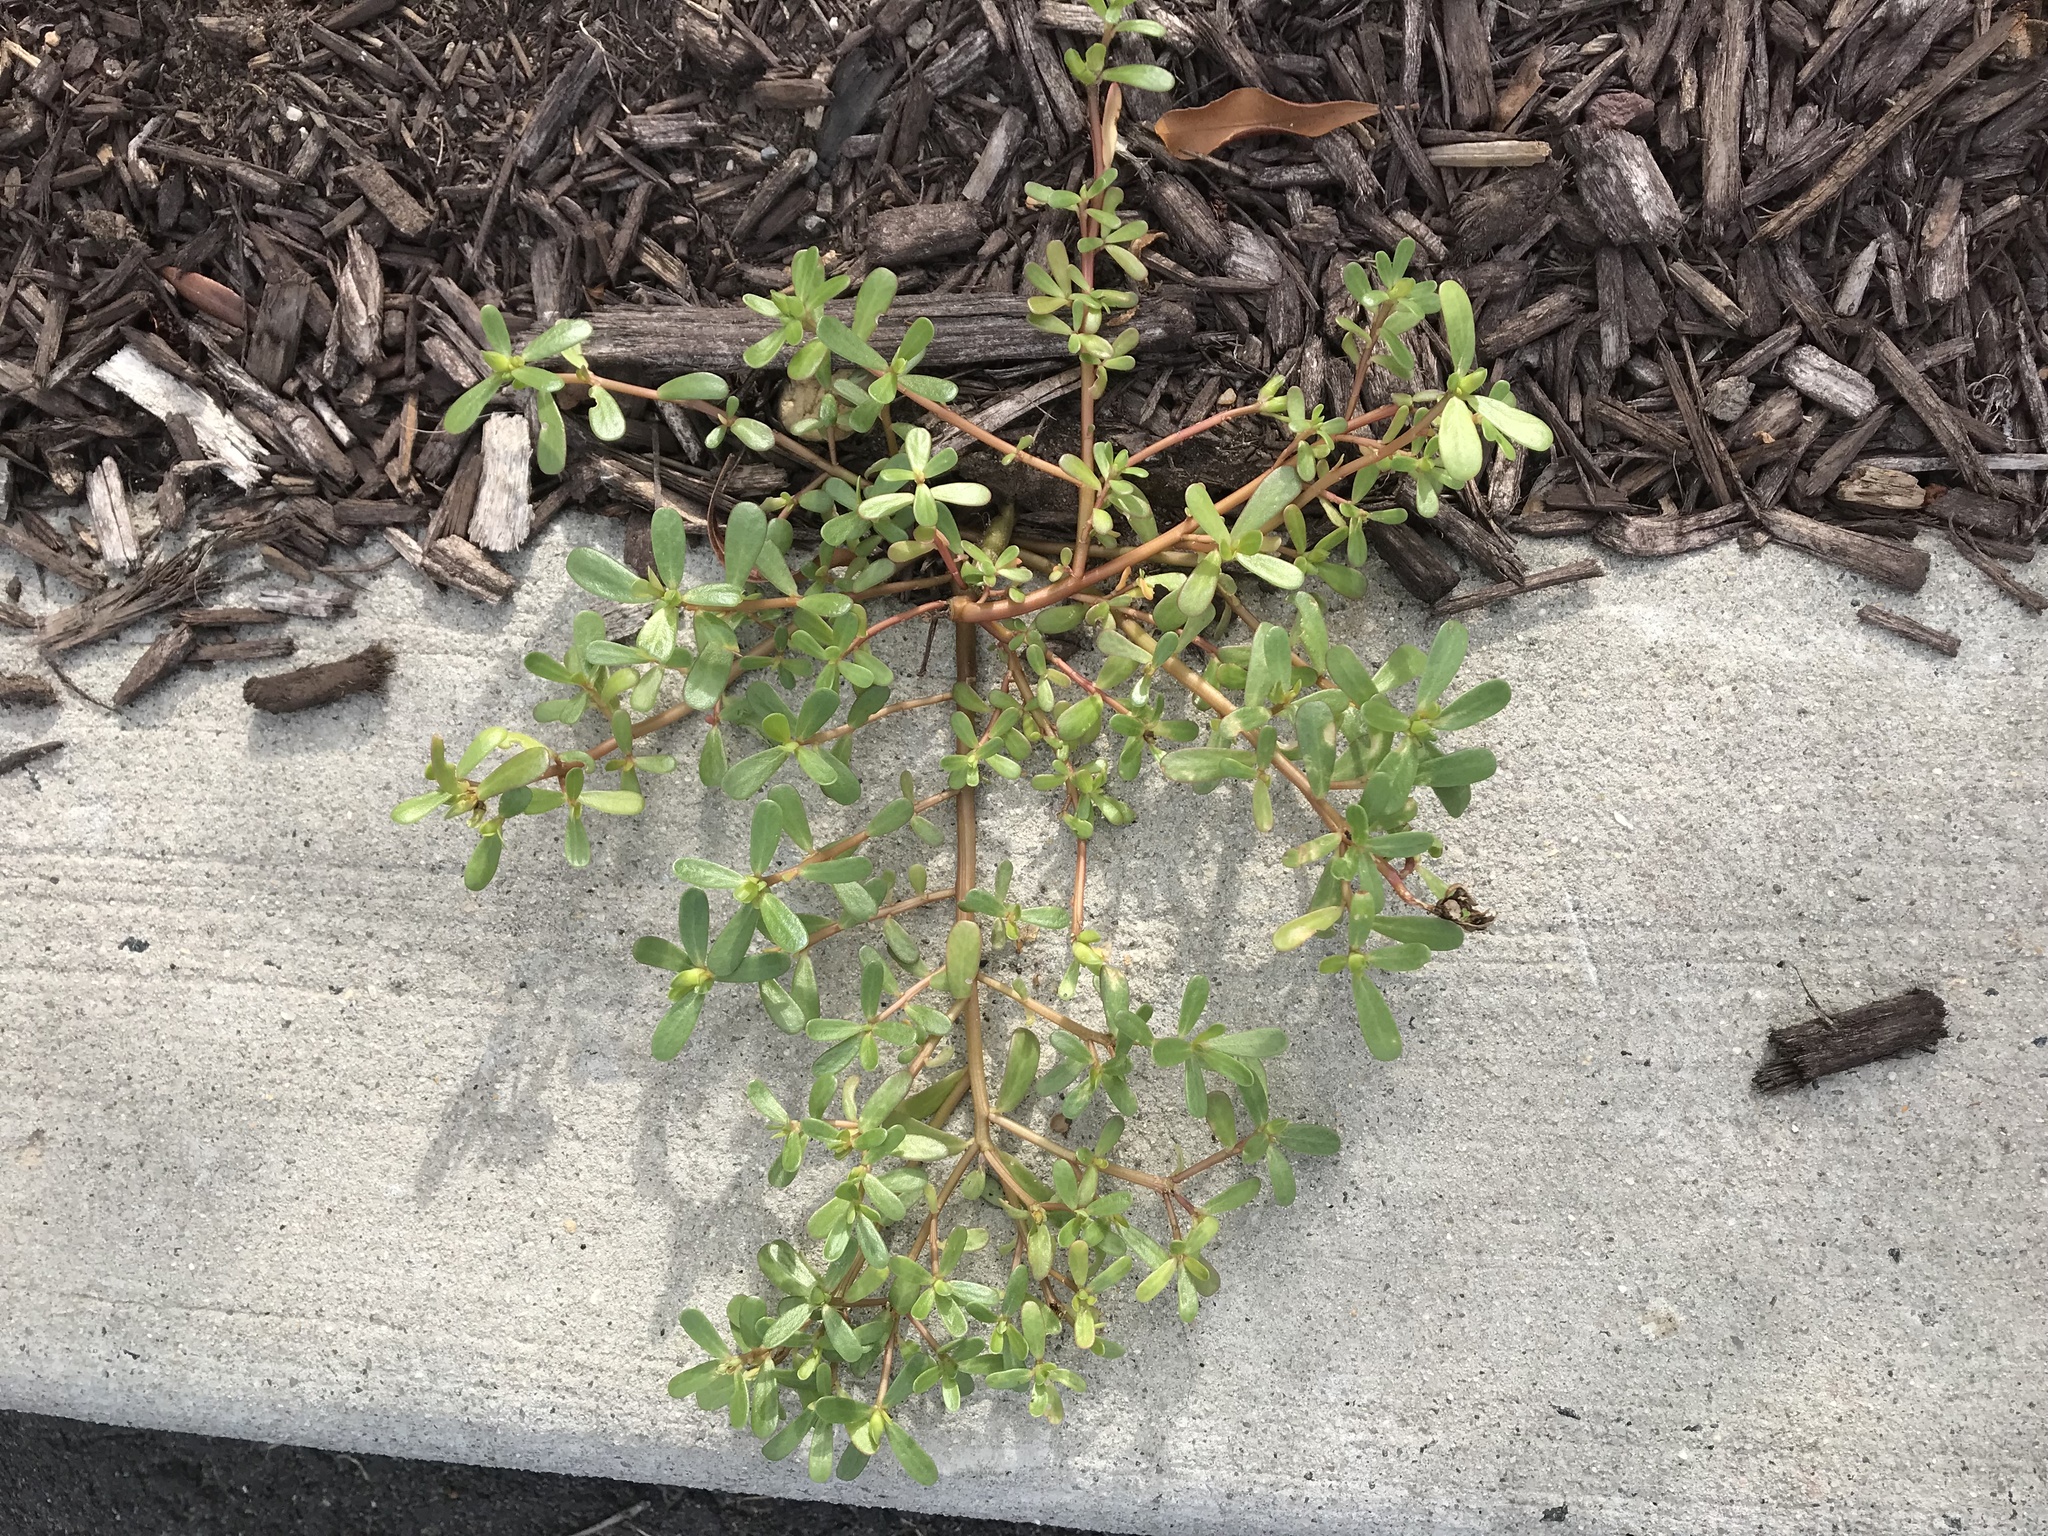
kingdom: Plantae
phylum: Tracheophyta
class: Magnoliopsida
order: Caryophyllales
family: Portulacaceae
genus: Portulaca
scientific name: Portulaca oleracea
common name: Common purslane
